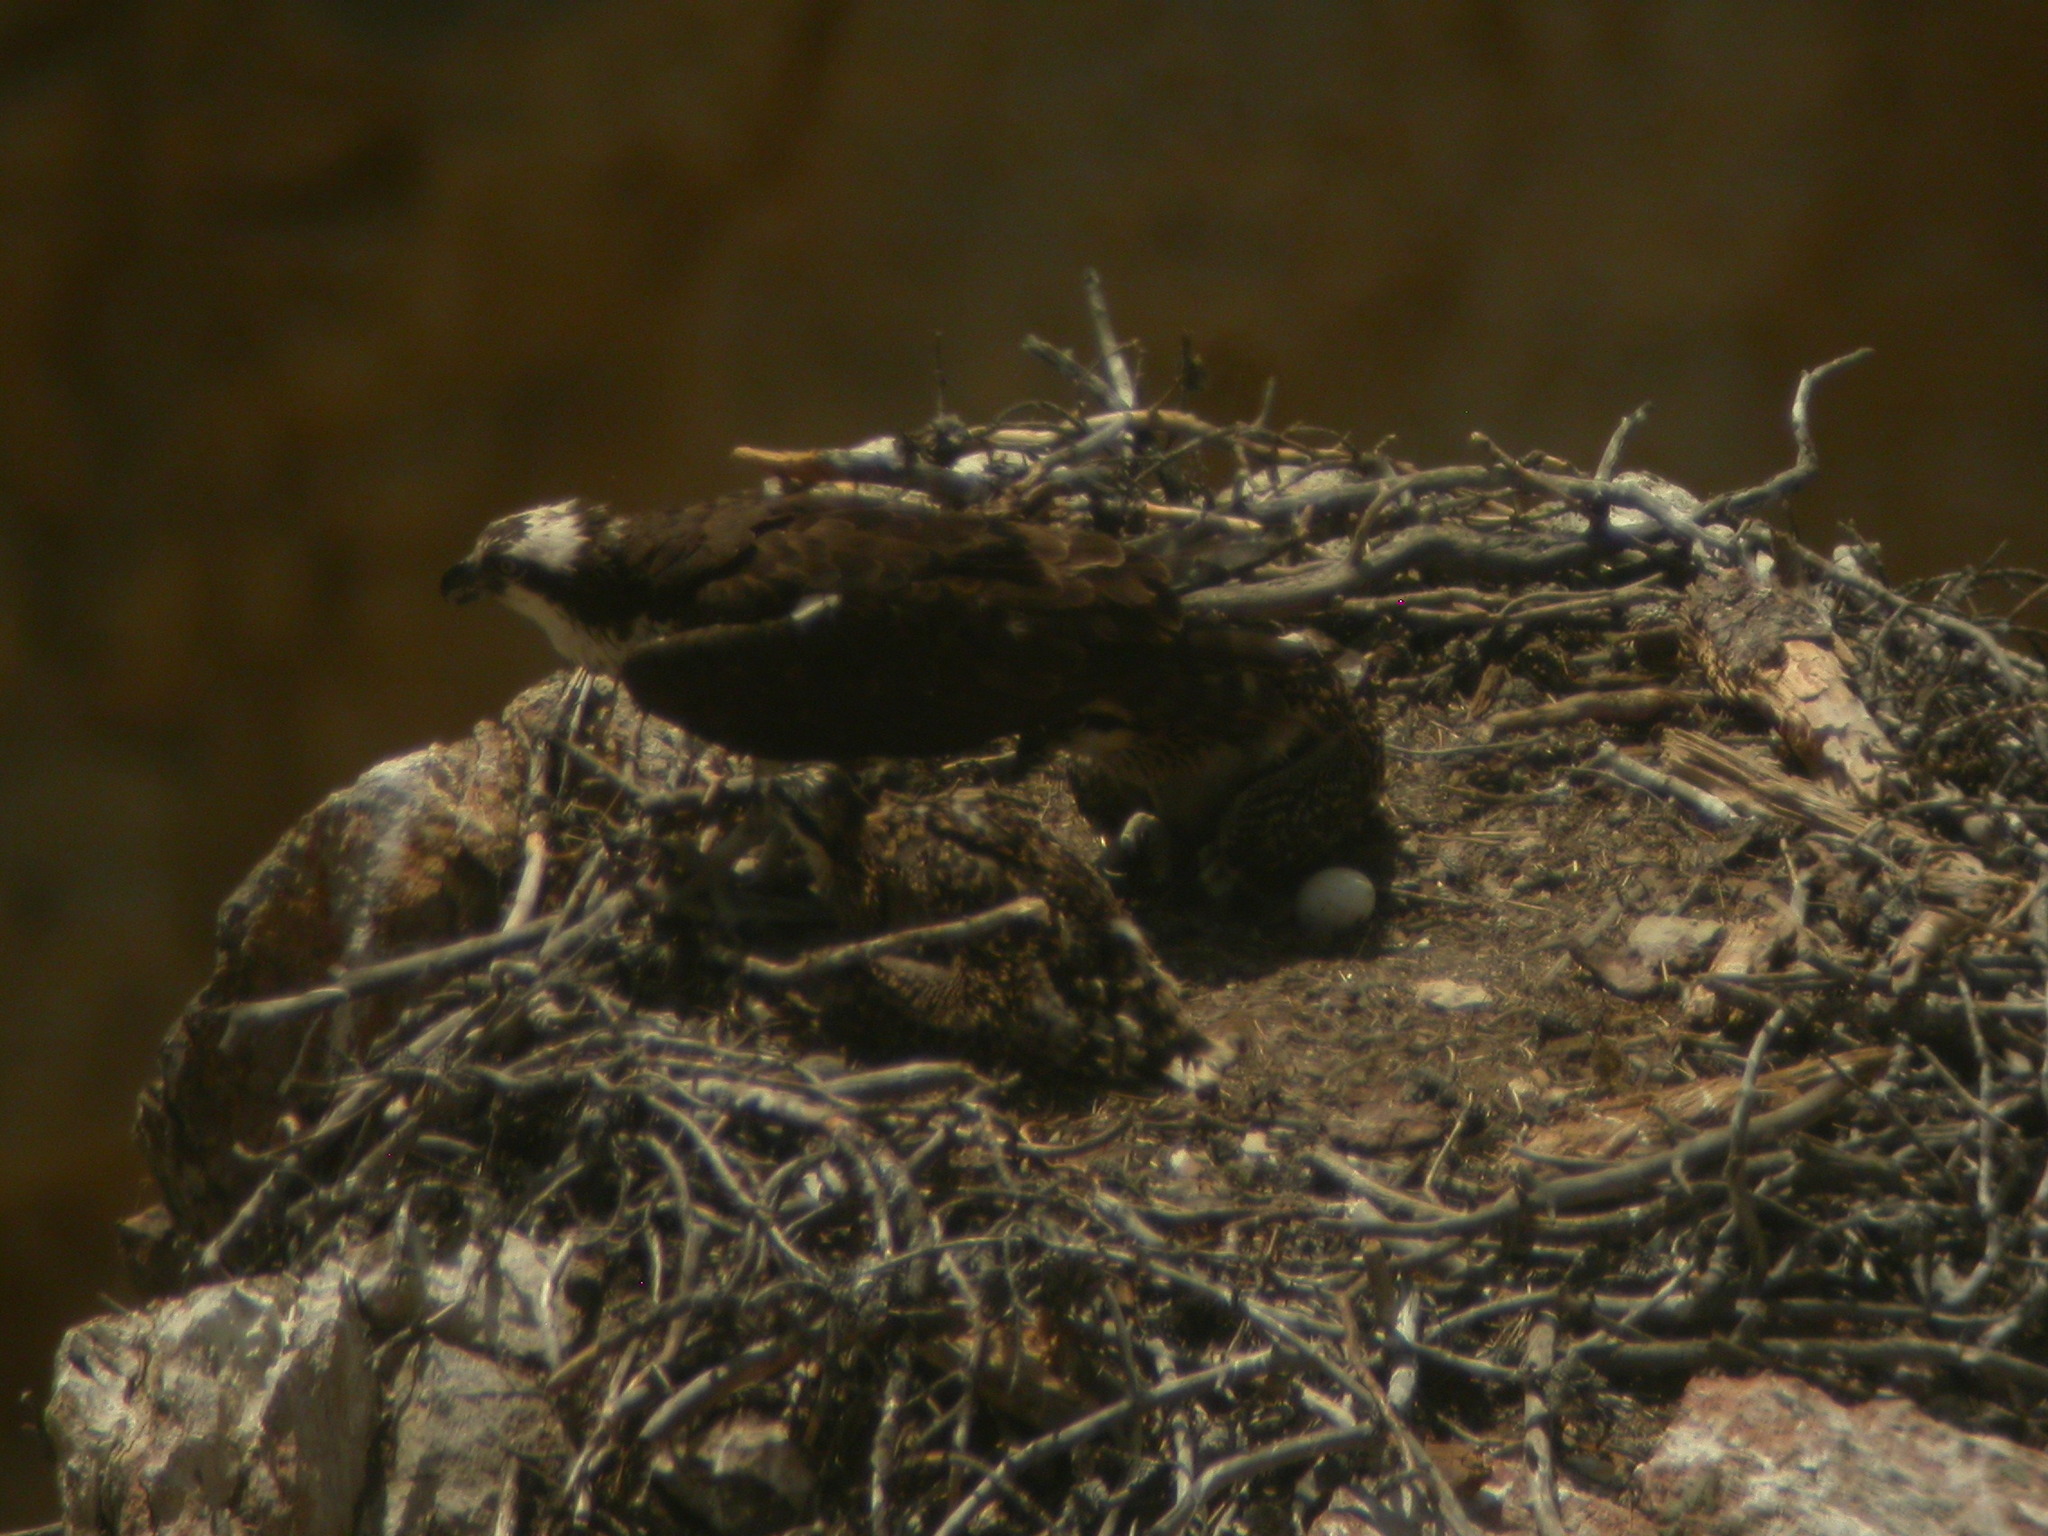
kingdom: Animalia
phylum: Chordata
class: Aves
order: Accipitriformes
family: Pandionidae
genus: Pandion
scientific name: Pandion haliaetus
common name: Osprey
